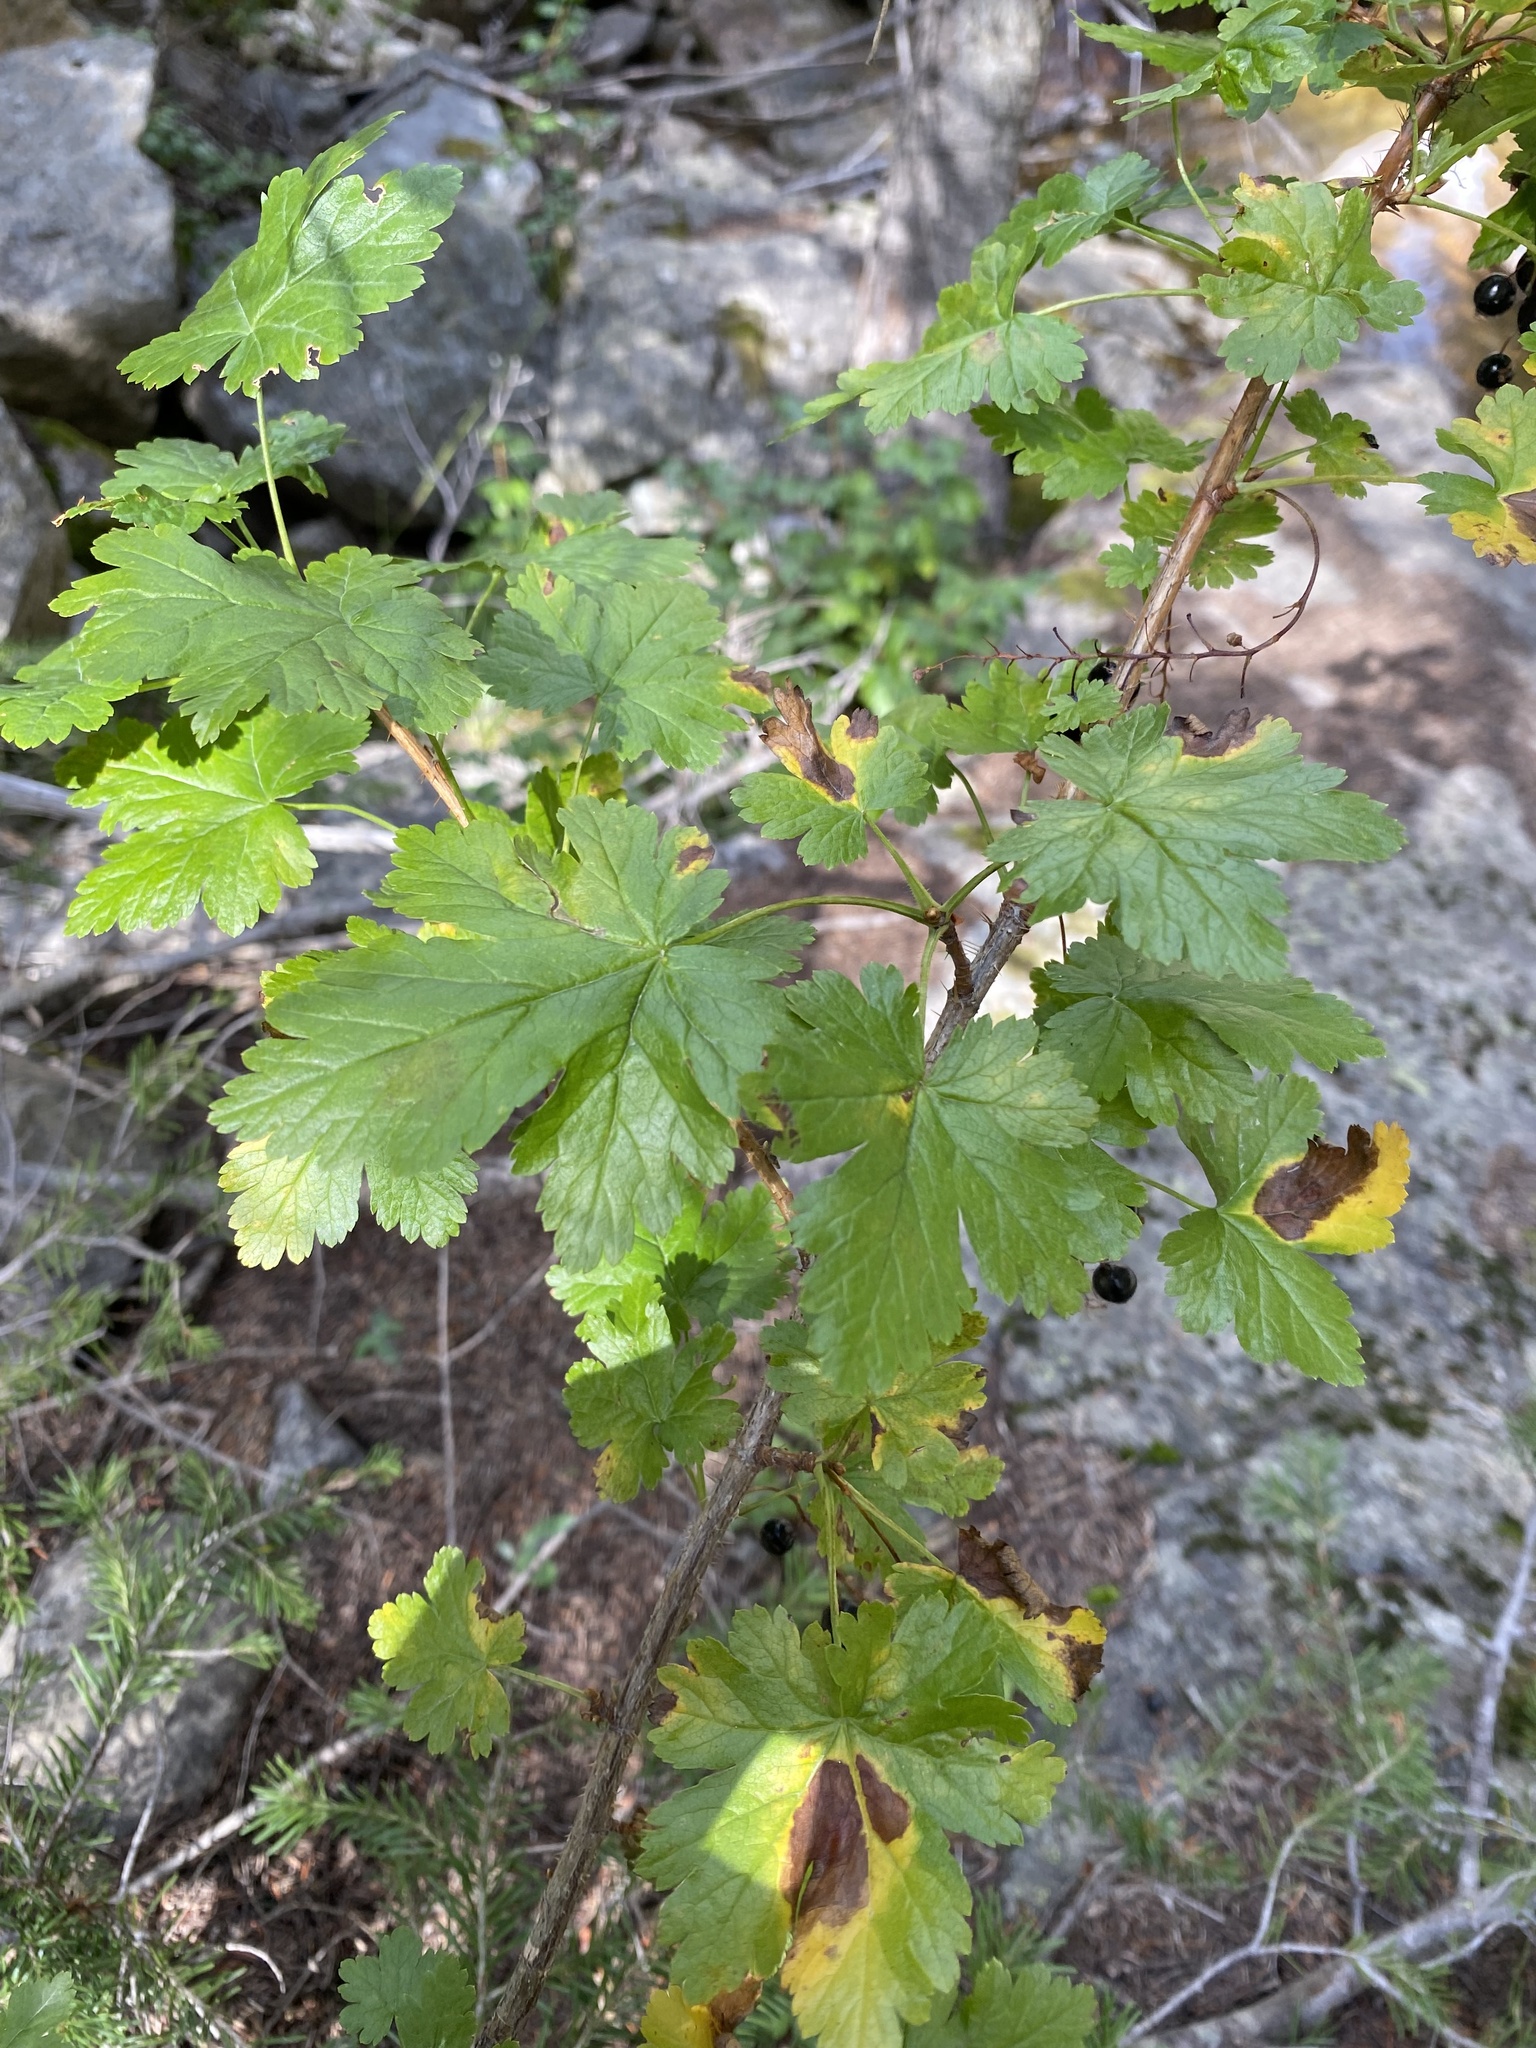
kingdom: Plantae
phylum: Tracheophyta
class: Magnoliopsida
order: Saxifragales
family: Grossulariaceae
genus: Ribes
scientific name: Ribes lacustre
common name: Black gooseberry
